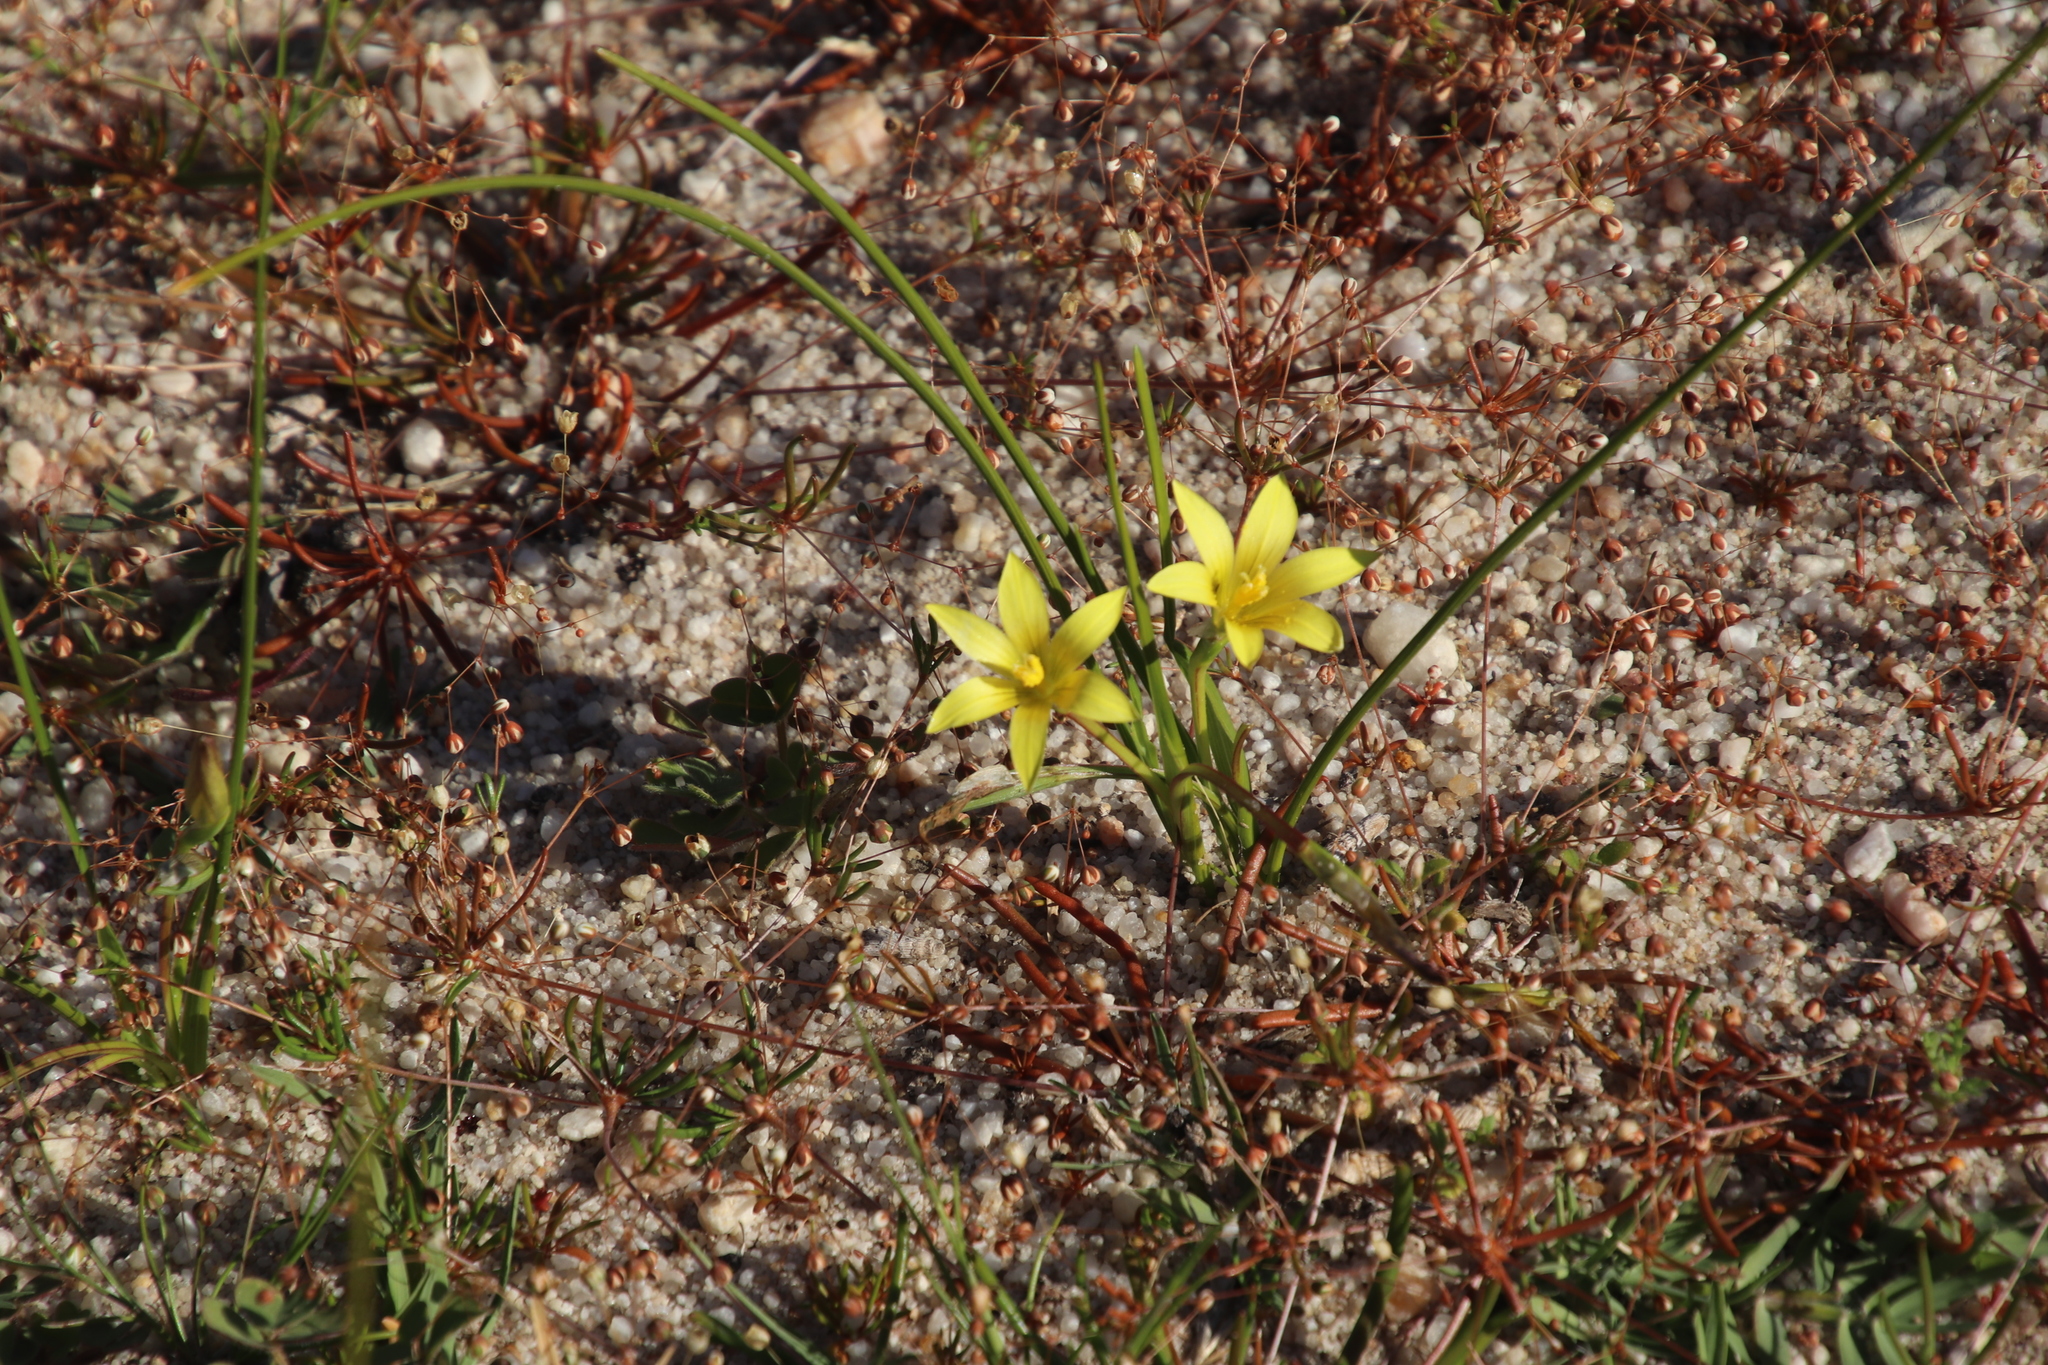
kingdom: Plantae
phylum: Tracheophyta
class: Liliopsida
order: Asparagales
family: Iridaceae
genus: Romulea
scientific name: Romulea flava
